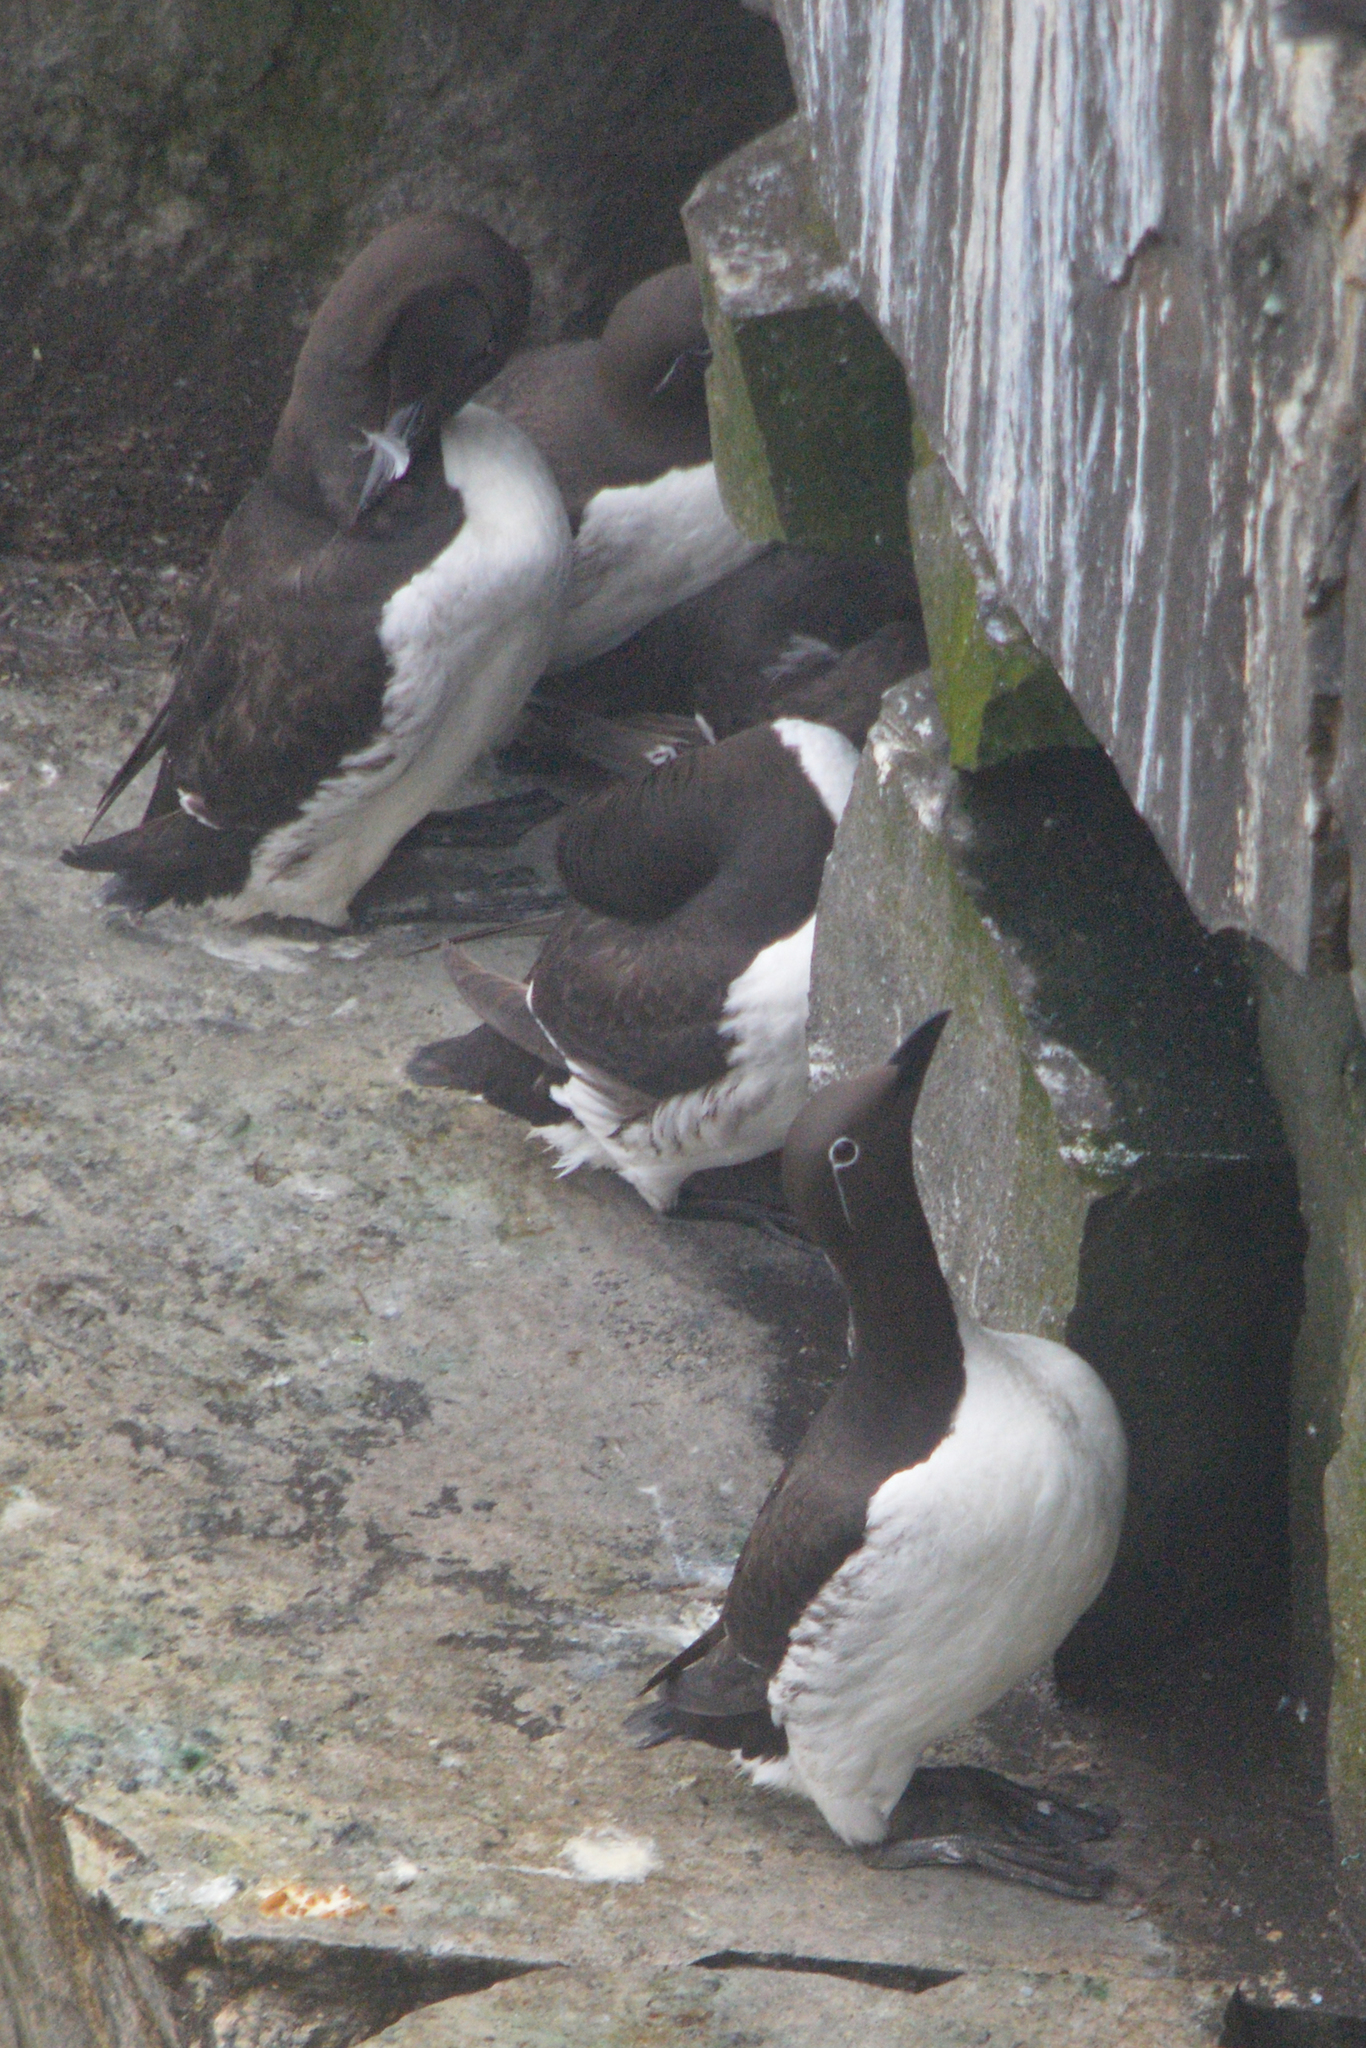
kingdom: Animalia
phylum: Chordata
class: Aves
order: Charadriiformes
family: Alcidae
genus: Uria
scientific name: Uria aalge
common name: Common murre
